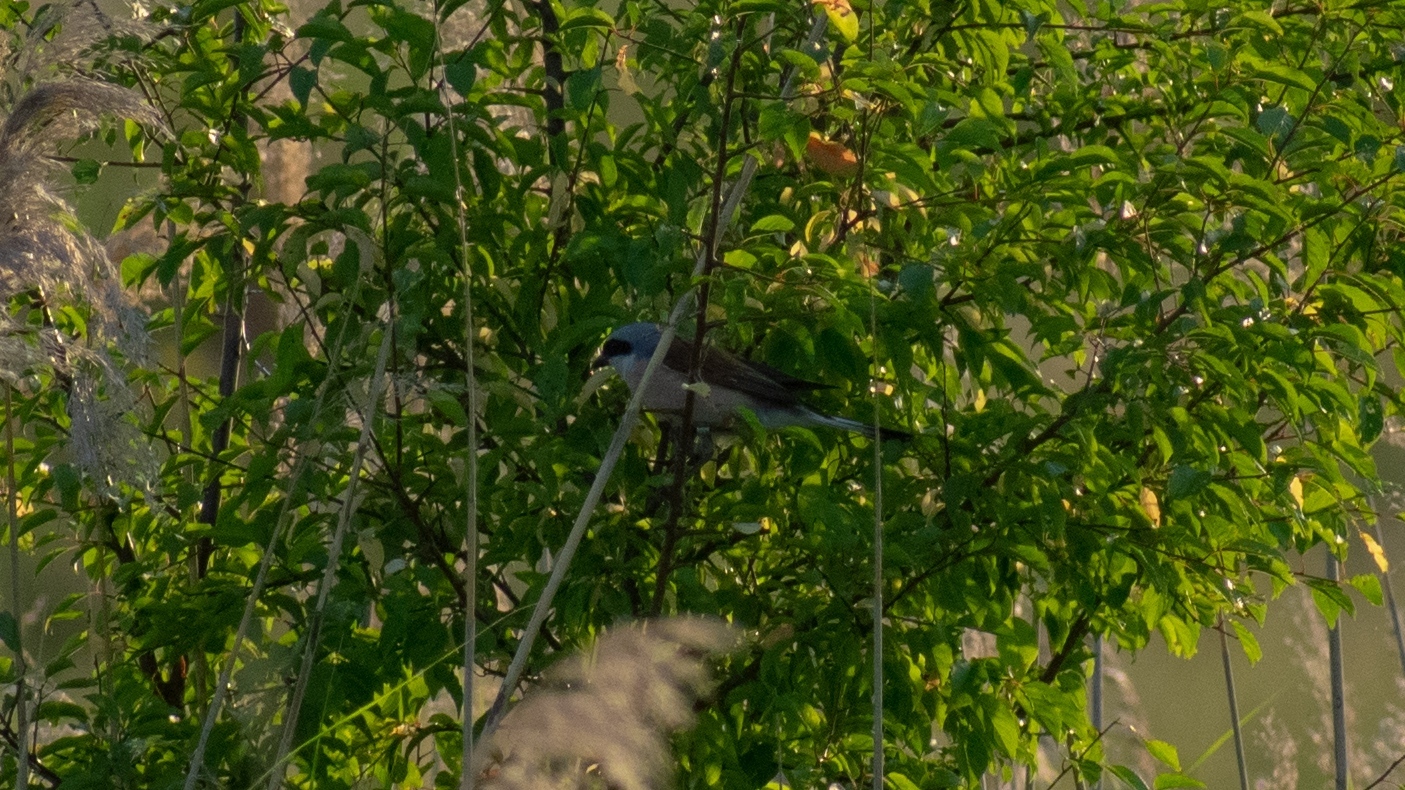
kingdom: Animalia
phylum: Chordata
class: Aves
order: Passeriformes
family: Laniidae
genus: Lanius
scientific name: Lanius collurio
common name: Red-backed shrike
